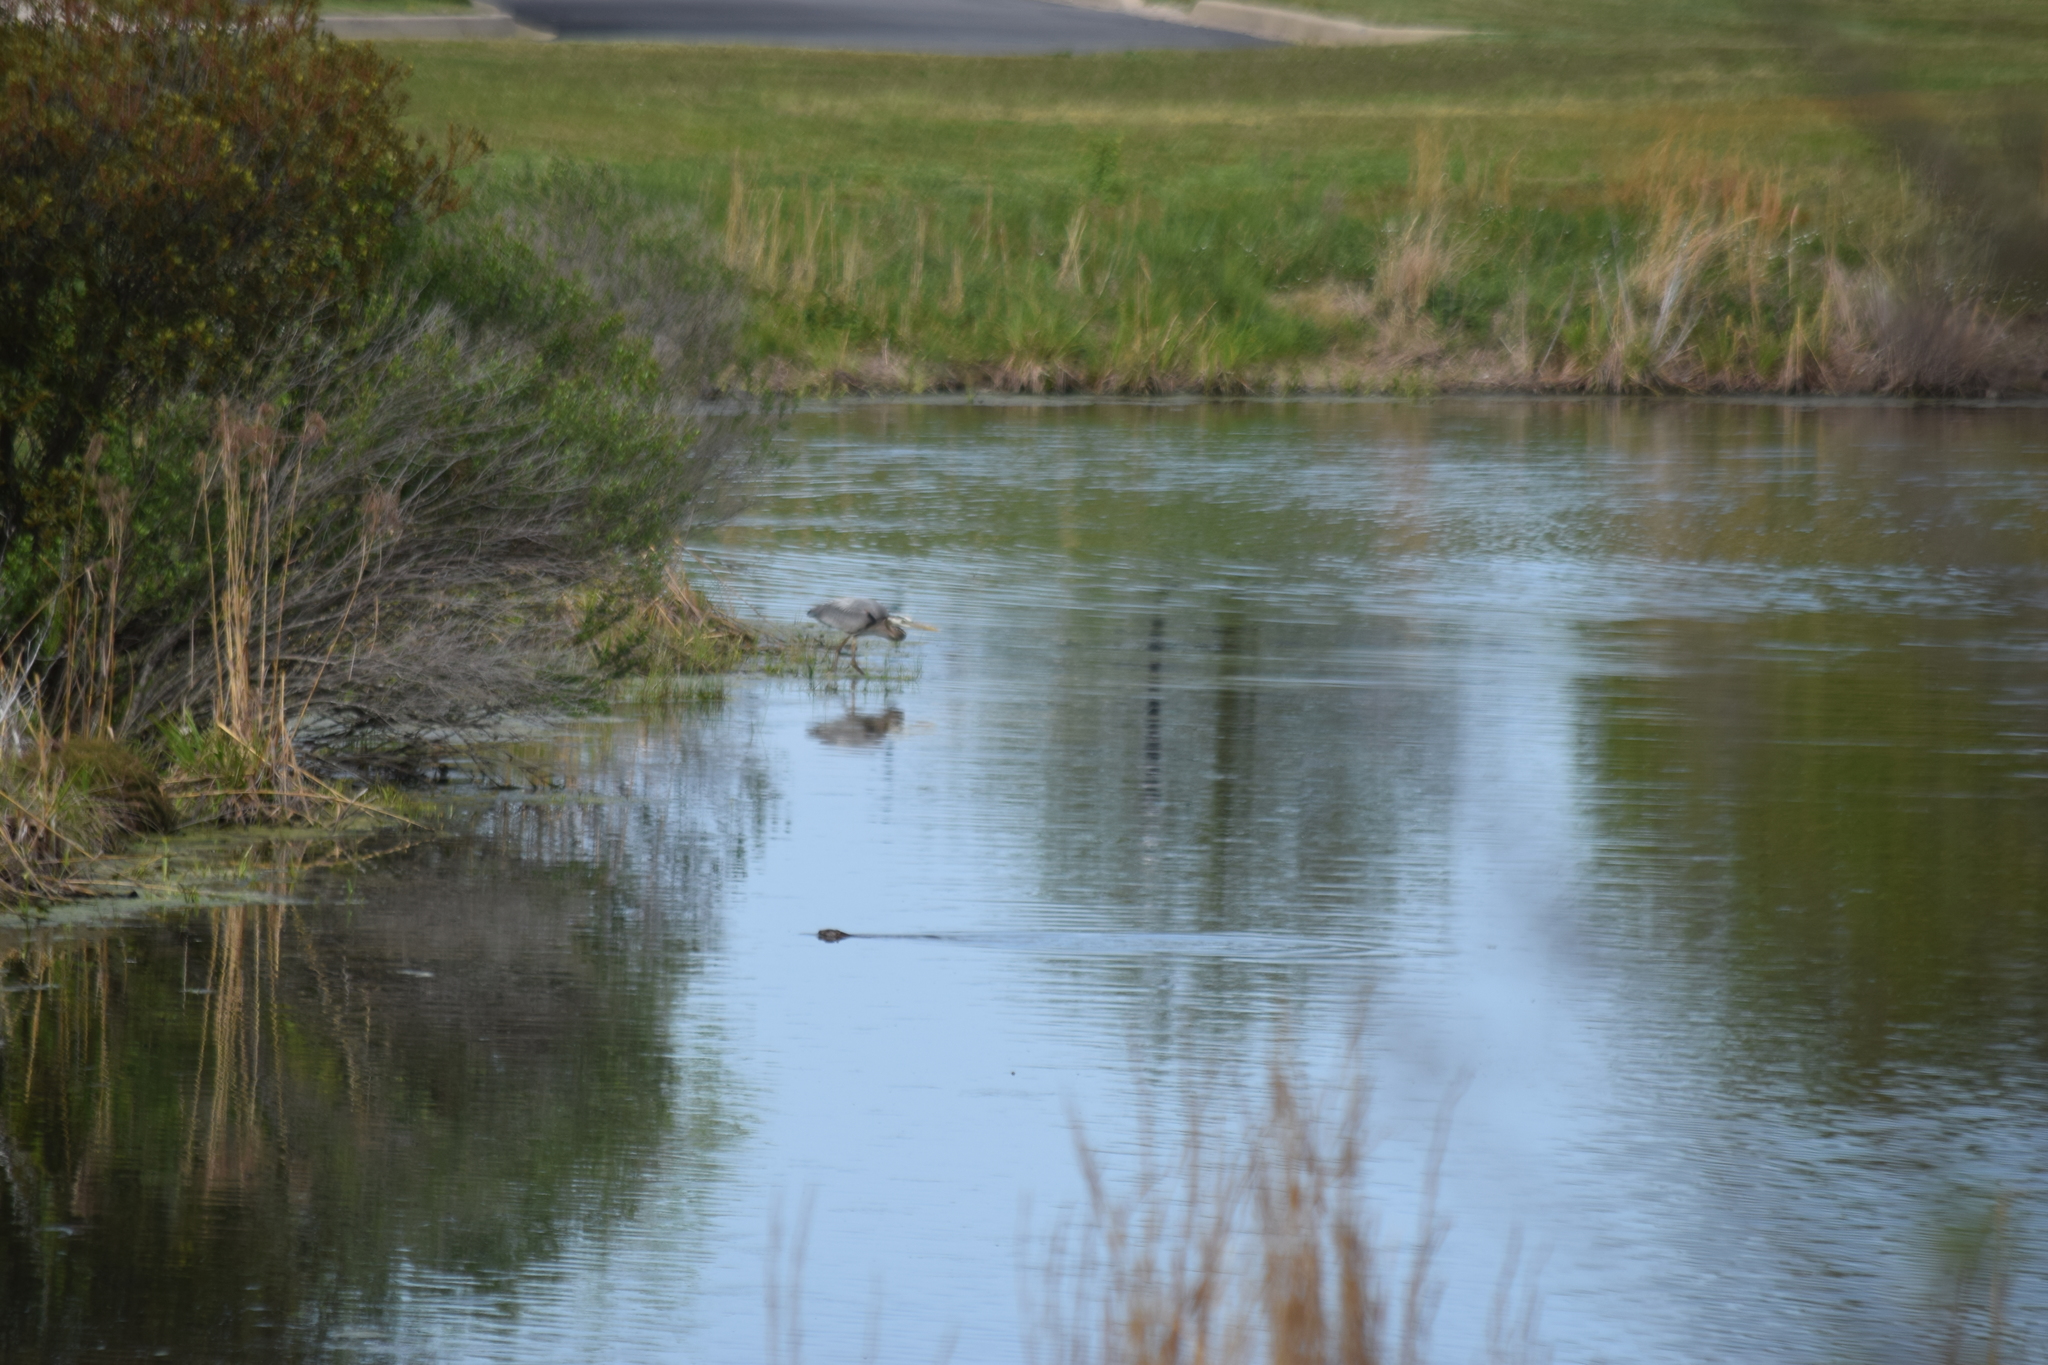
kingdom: Animalia
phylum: Chordata
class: Aves
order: Pelecaniformes
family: Ardeidae
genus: Ardea
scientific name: Ardea herodias
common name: Great blue heron
